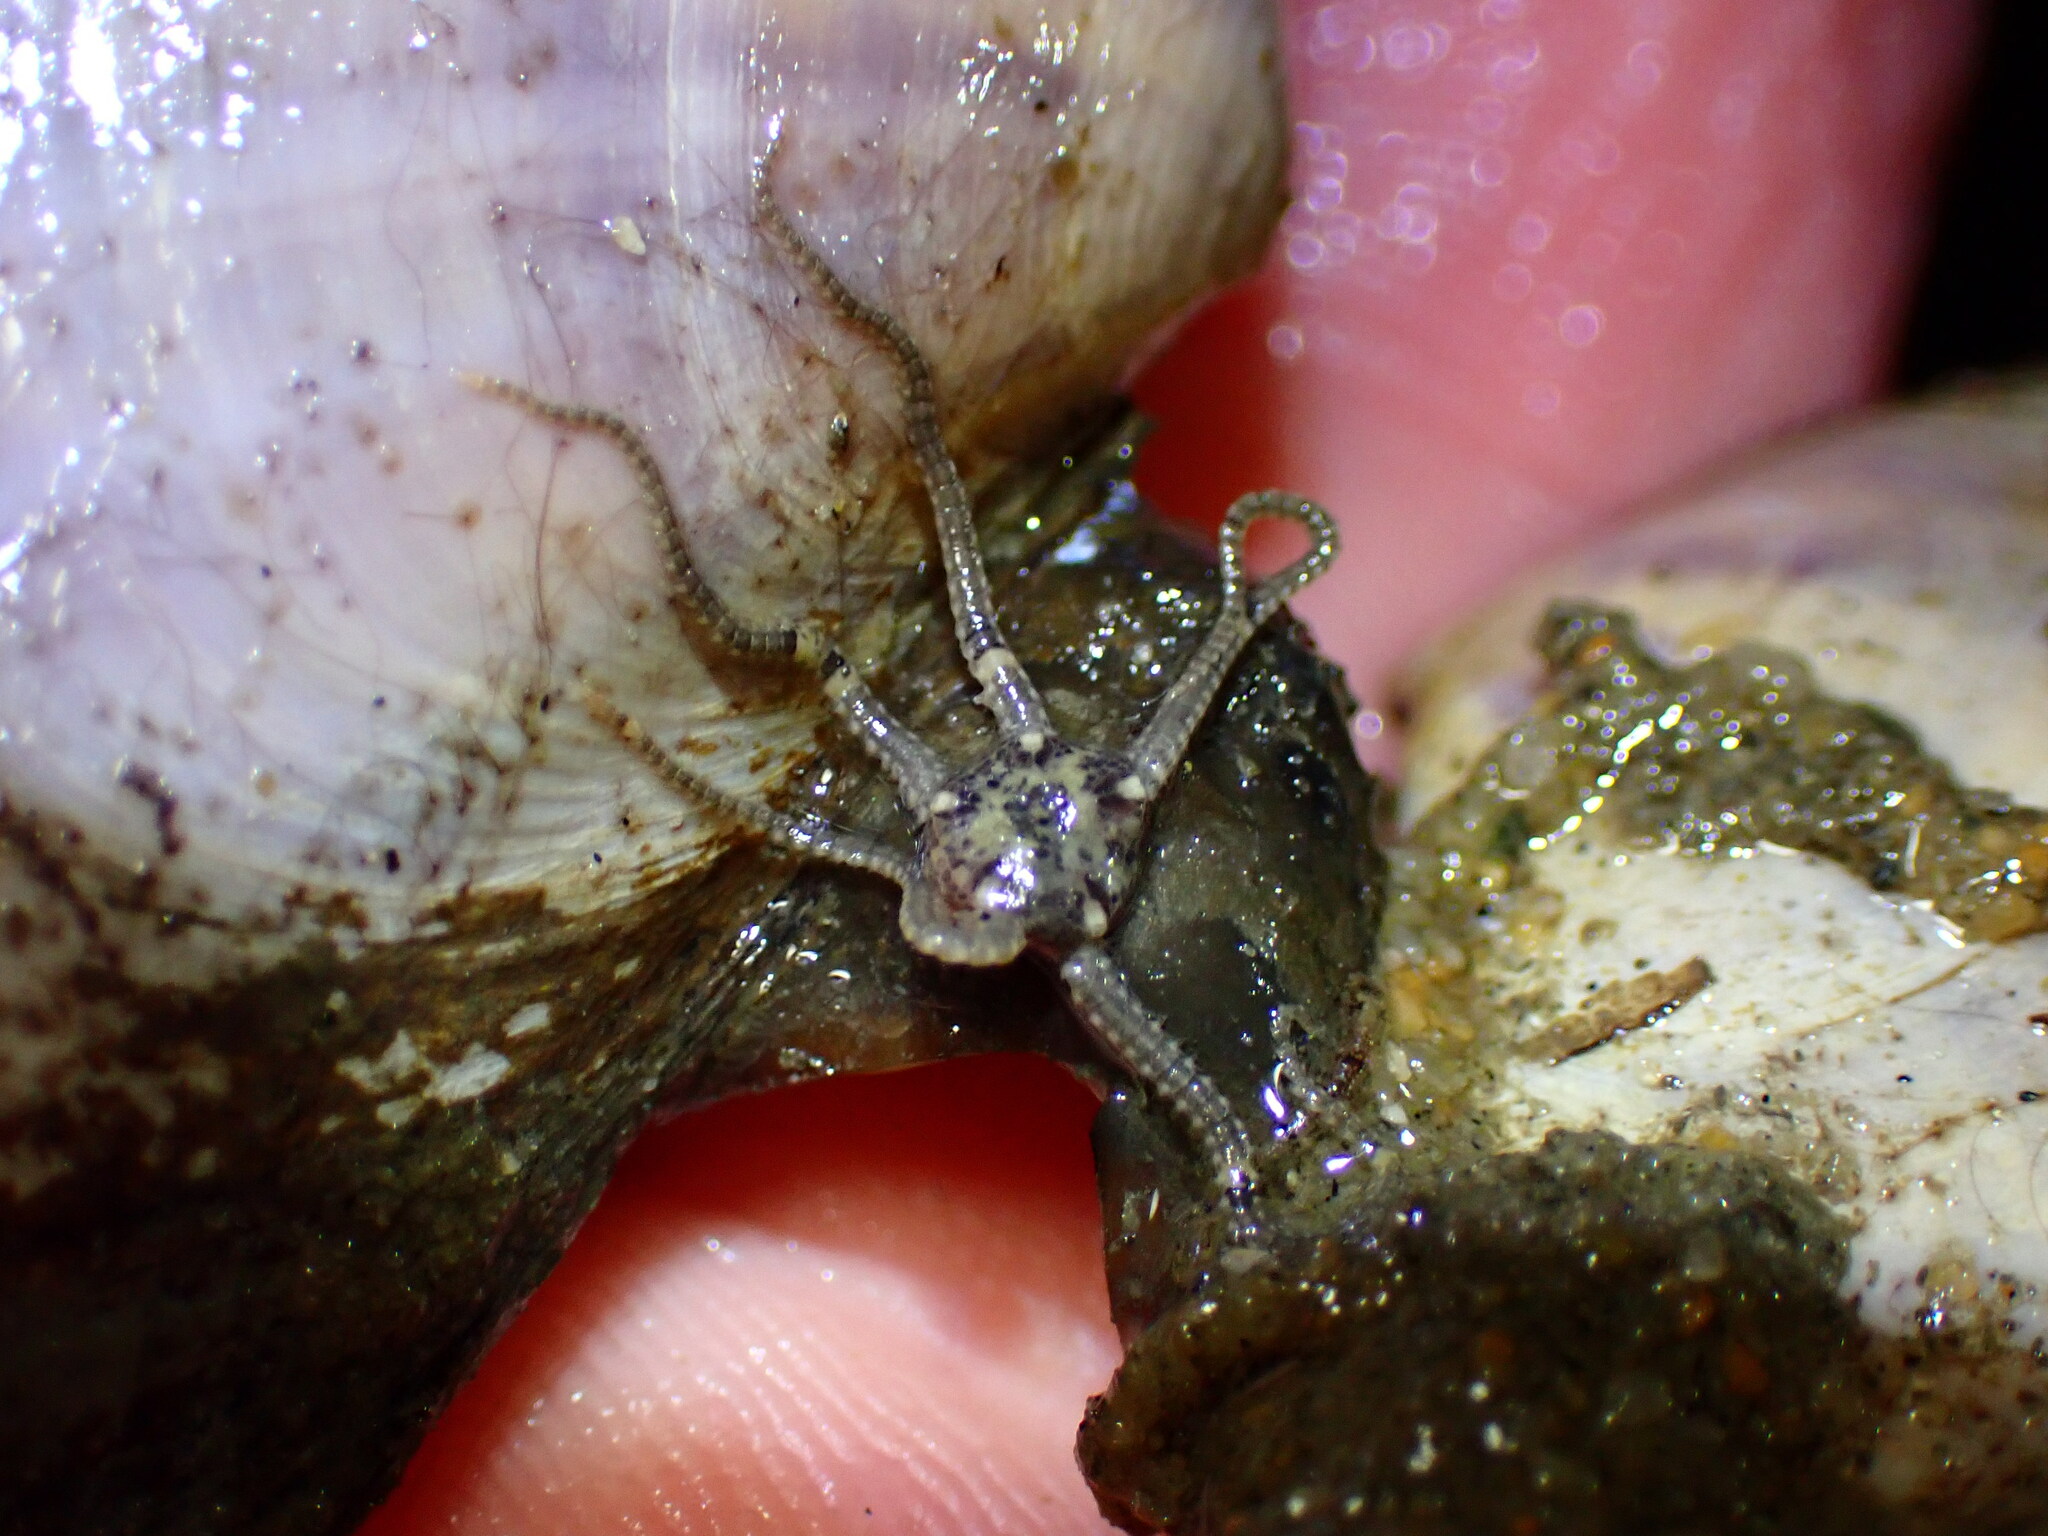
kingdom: Animalia
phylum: Echinodermata
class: Ophiuroidea
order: Amphilepidida
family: Amphiuridae
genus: Amphipholis
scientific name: Amphipholis squamata
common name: Brooding snake star
